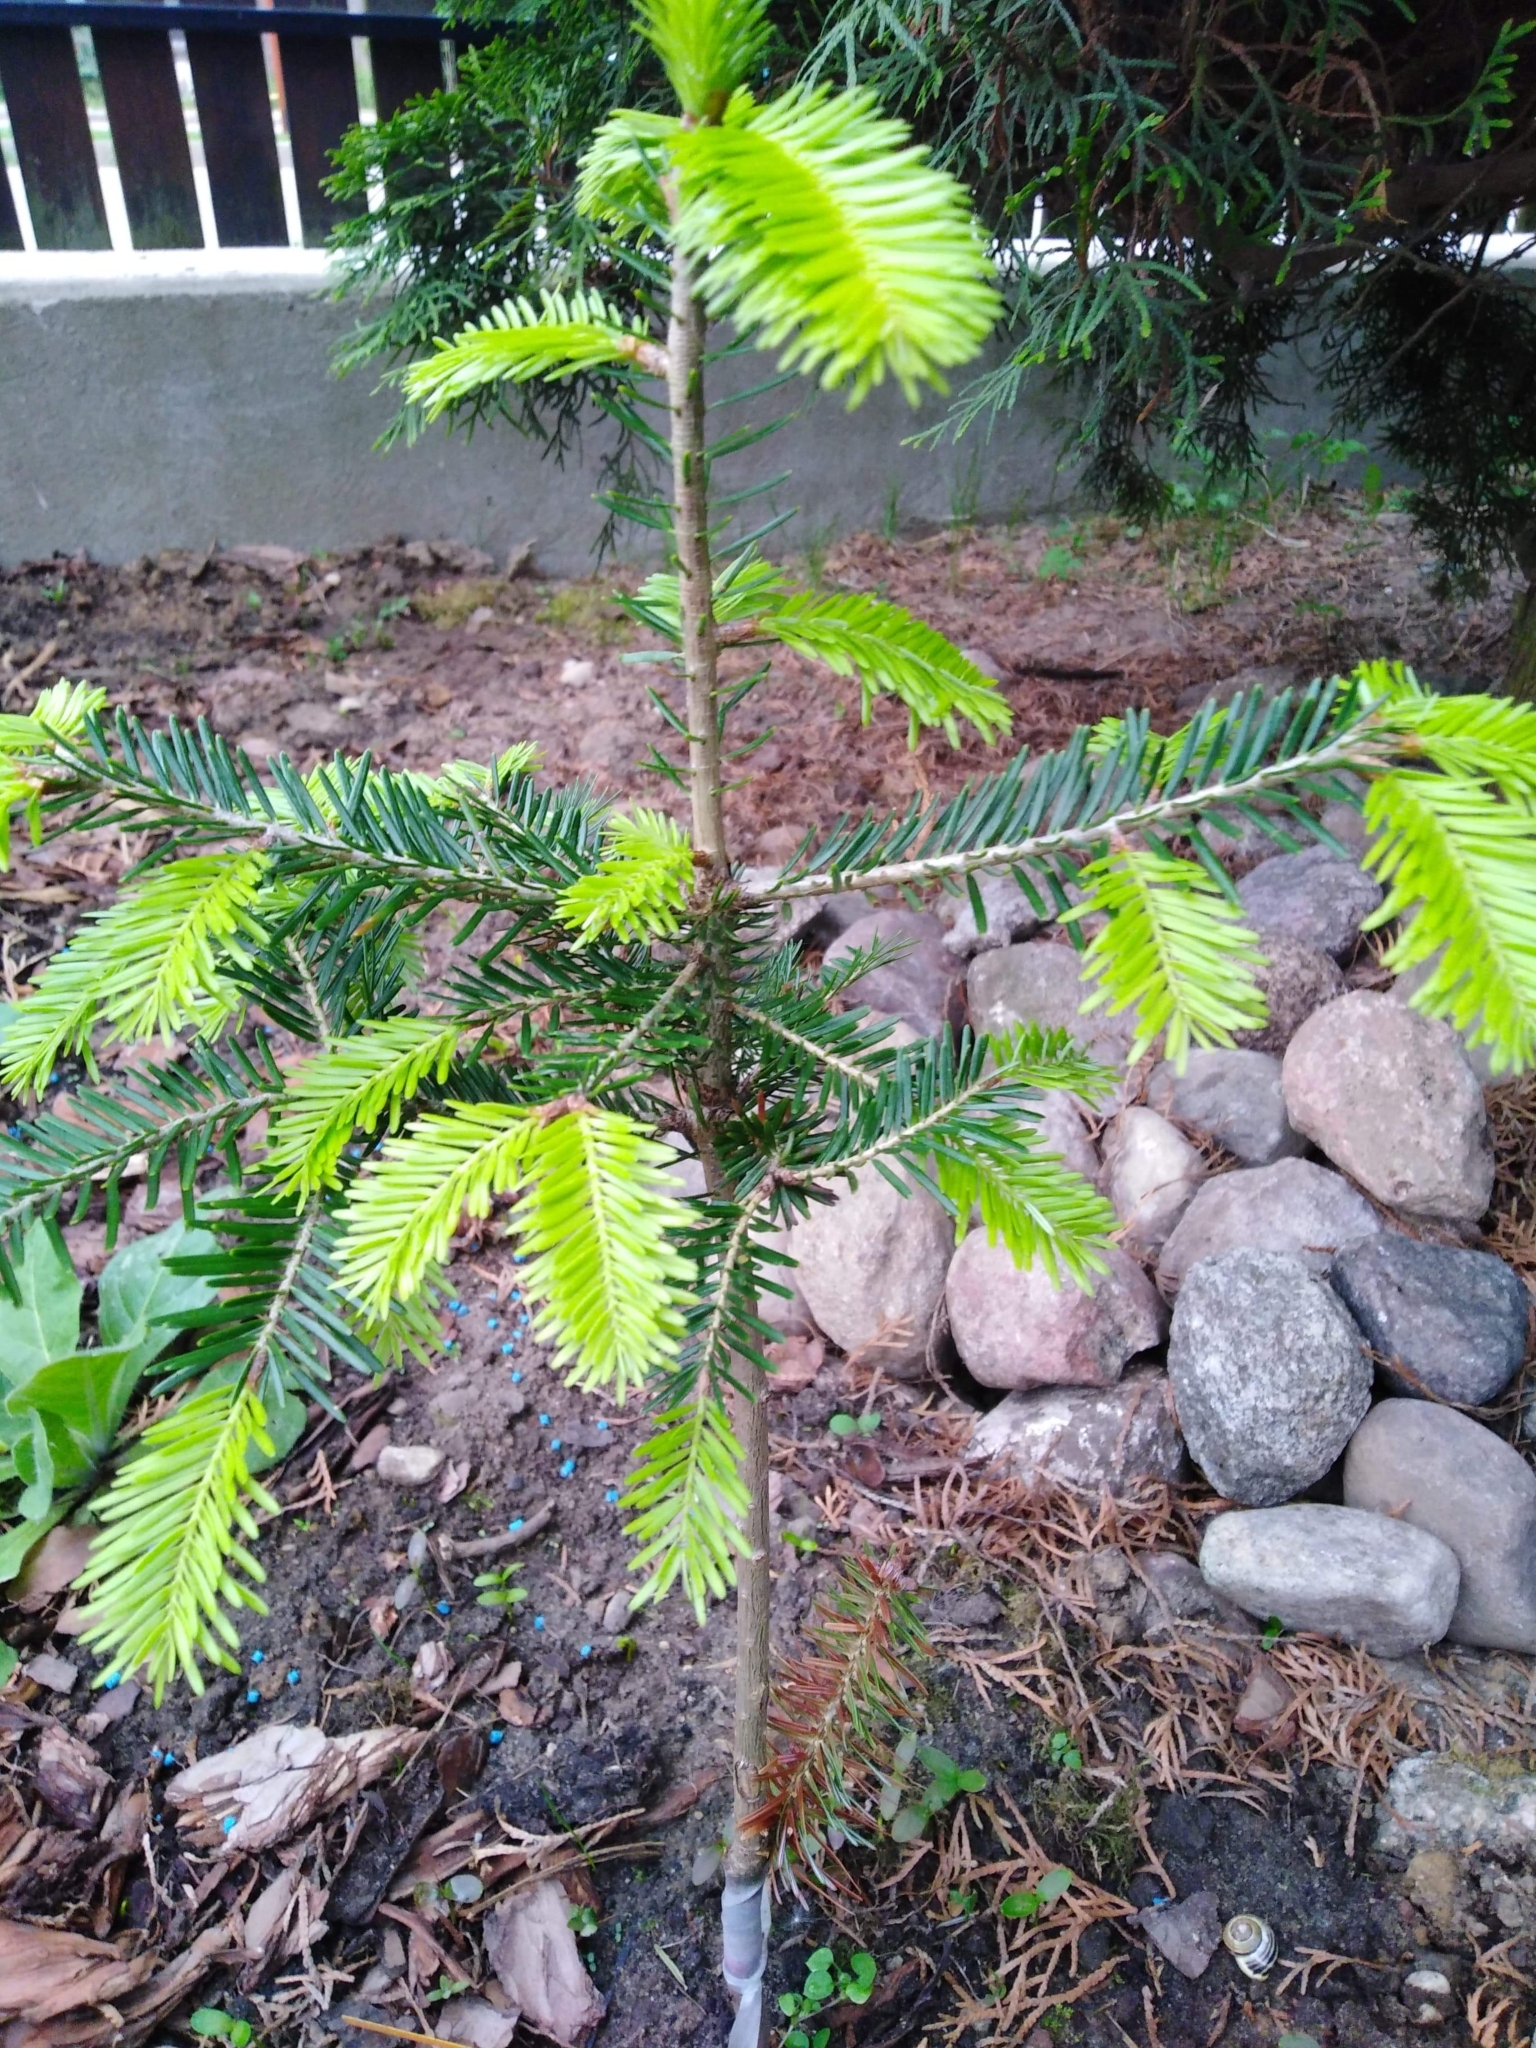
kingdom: Plantae
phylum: Tracheophyta
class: Pinopsida
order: Pinales
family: Pinaceae
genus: Abies
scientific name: Abies alba
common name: Silver fir
